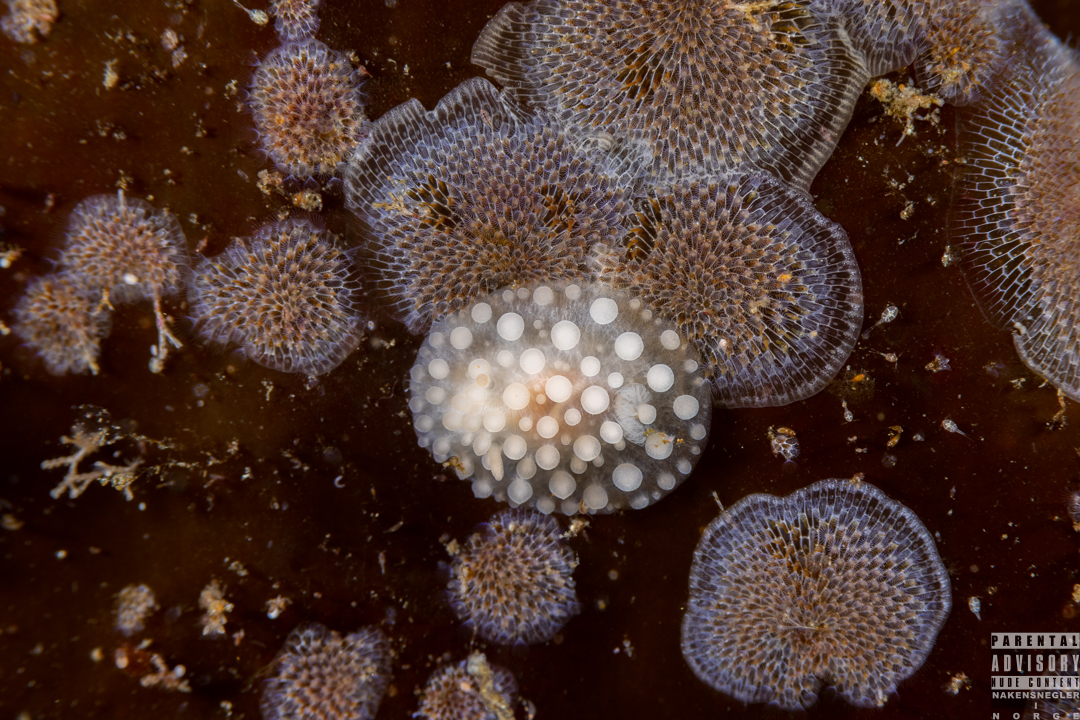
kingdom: Animalia
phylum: Mollusca
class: Gastropoda
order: Nudibranchia
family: Onchidorididae
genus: Adalaria
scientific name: Adalaria loveni
